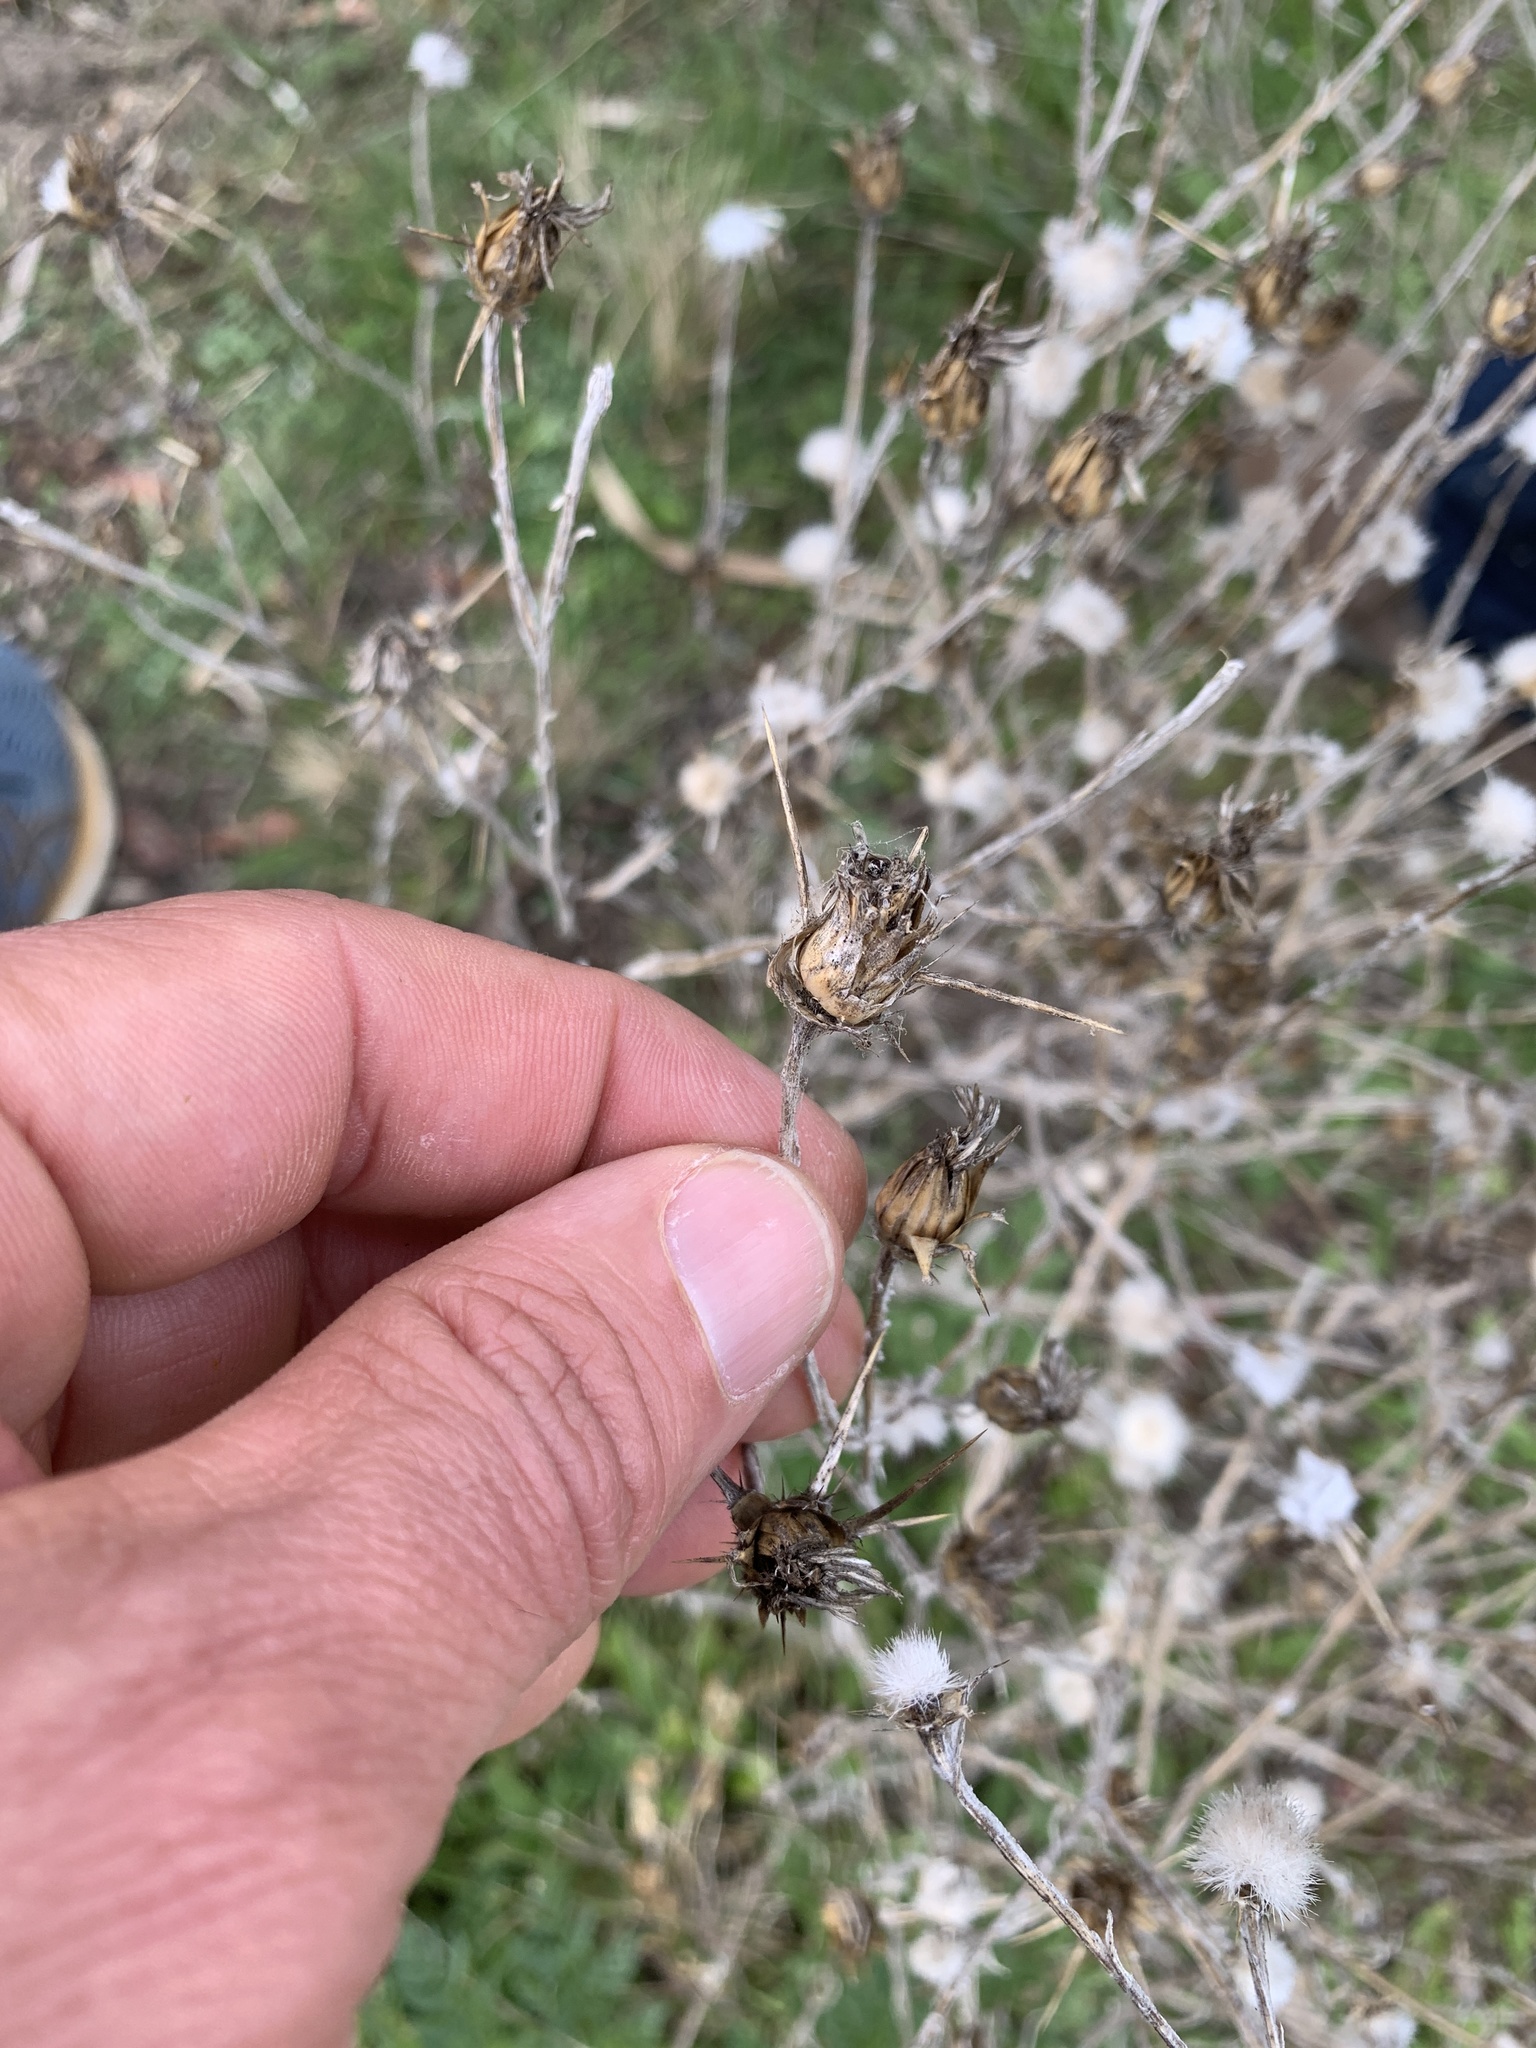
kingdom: Plantae
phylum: Tracheophyta
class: Magnoliopsida
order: Asterales
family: Asteraceae
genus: Centaurea
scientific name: Centaurea solstitialis
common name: Yellow star-thistle
